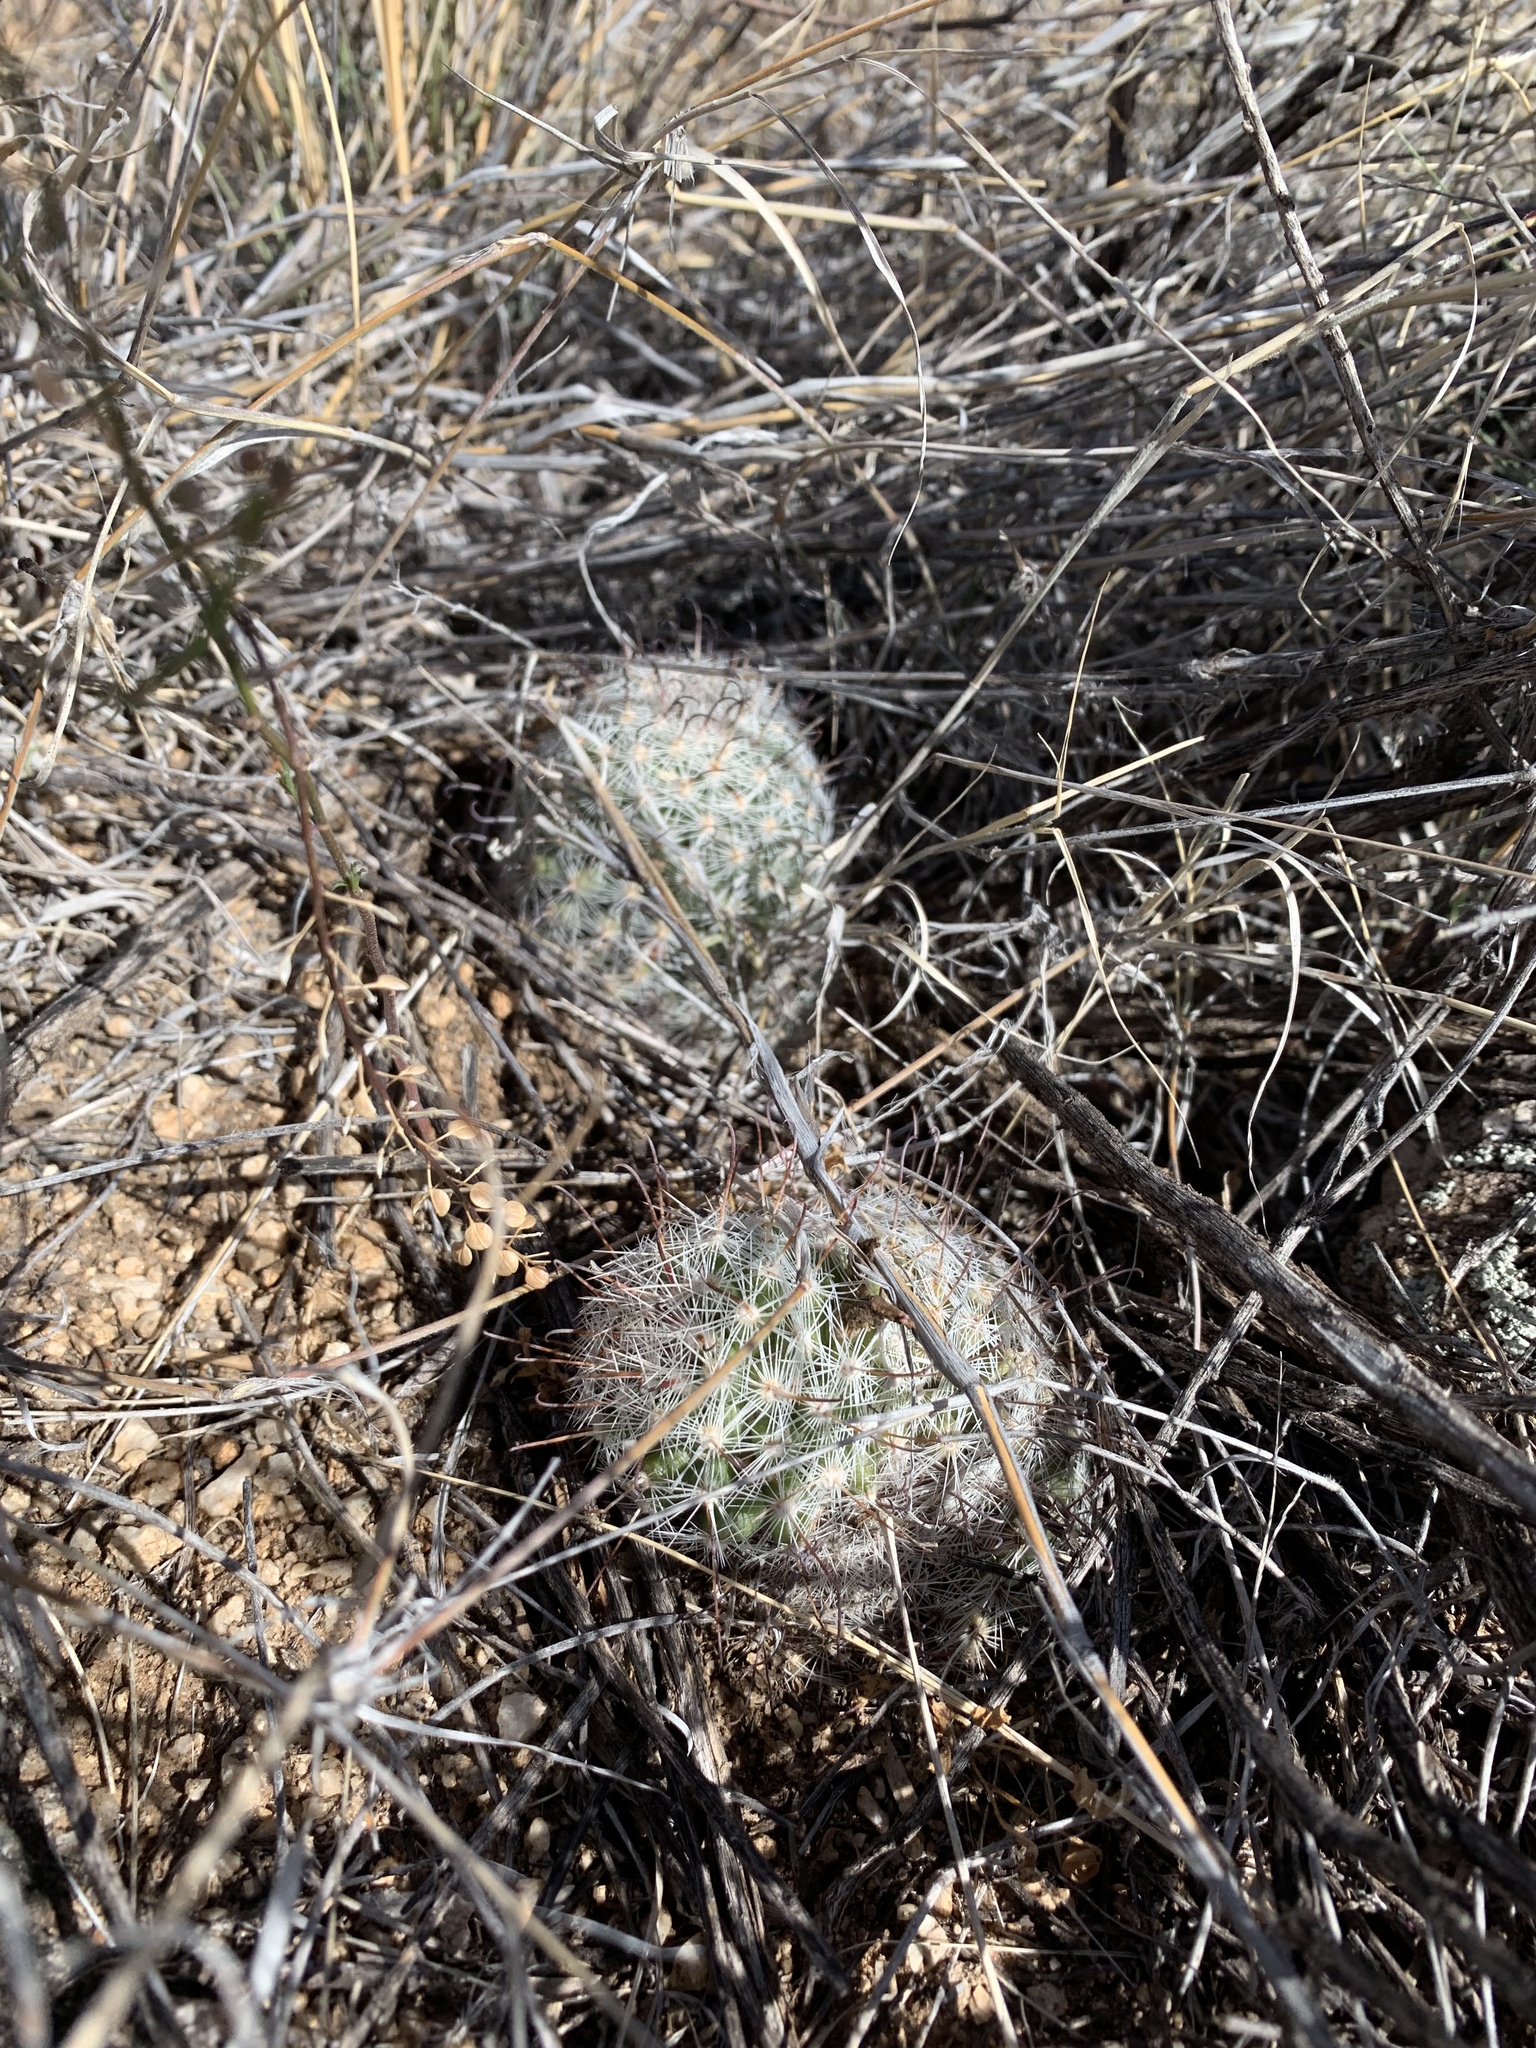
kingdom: Plantae
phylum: Tracheophyta
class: Magnoliopsida
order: Caryophyllales
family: Cactaceae
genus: Cochemiea
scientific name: Cochemiea grahamii
